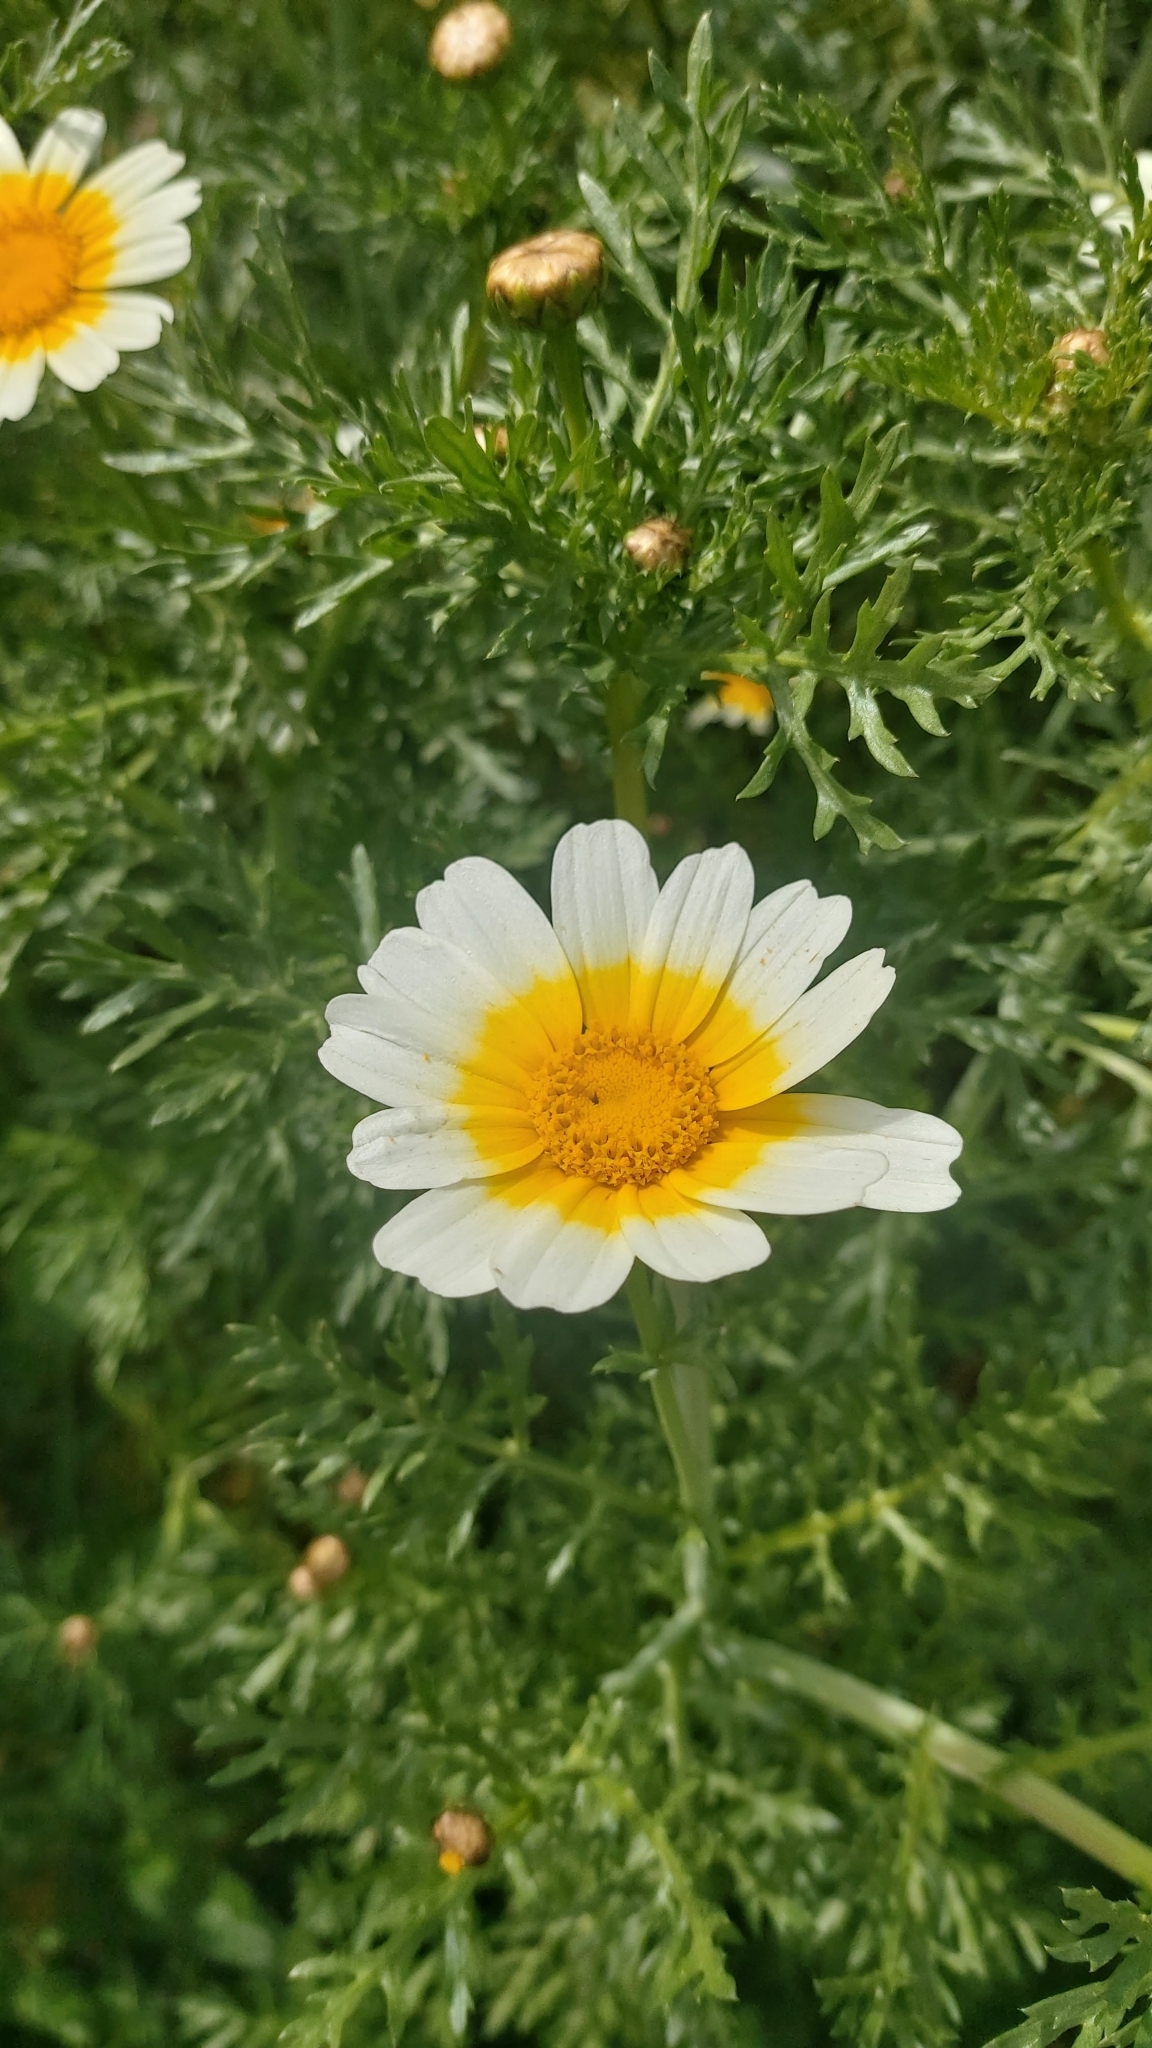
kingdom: Plantae
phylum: Tracheophyta
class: Magnoliopsida
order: Asterales
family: Asteraceae
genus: Glebionis
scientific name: Glebionis coronaria
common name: Crowndaisy
